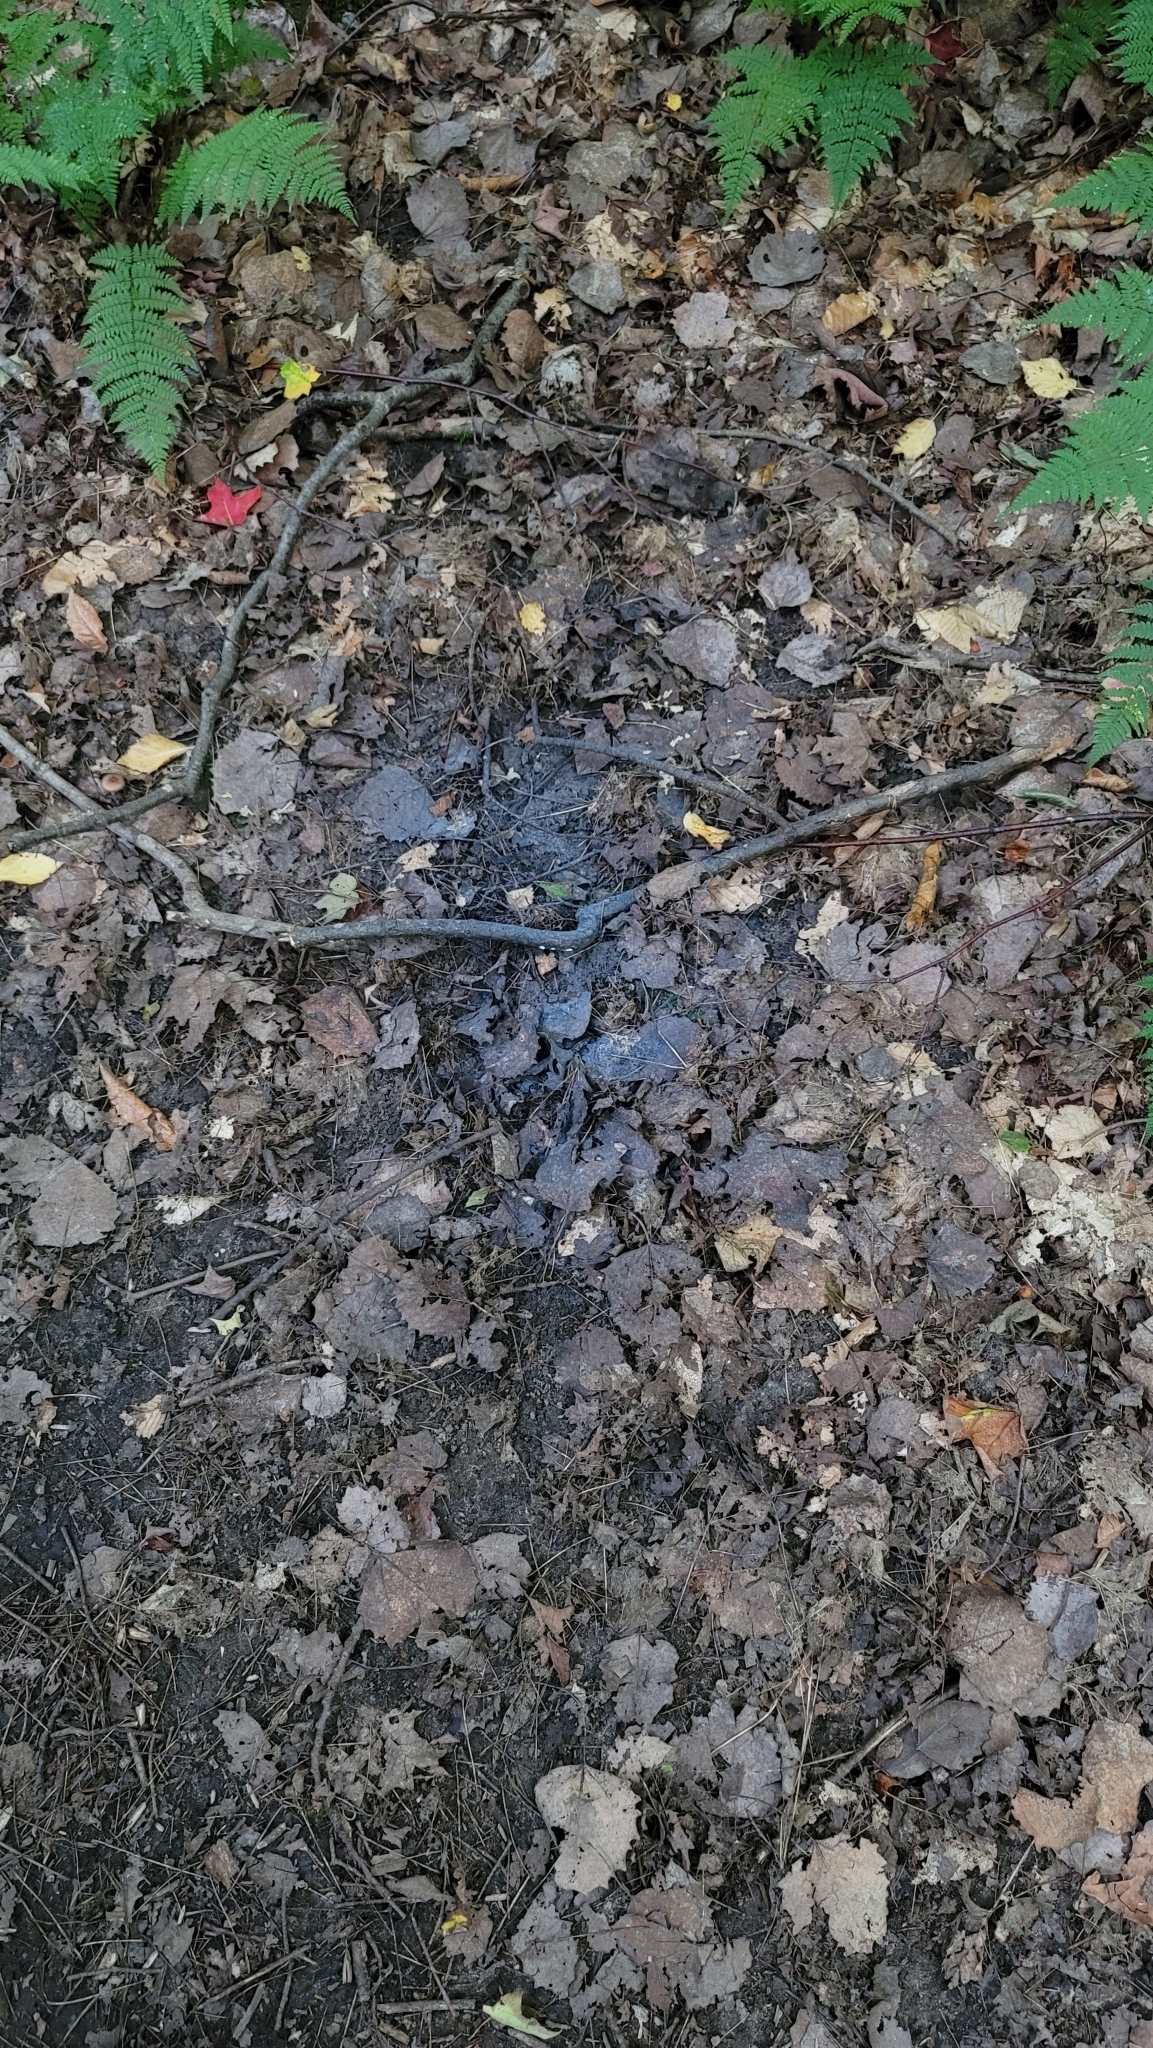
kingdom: Animalia
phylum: Arthropoda
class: Insecta
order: Hemiptera
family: Aphididae
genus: Grylloprociphilus
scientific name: Grylloprociphilus imbricator
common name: Beech blight aphid
